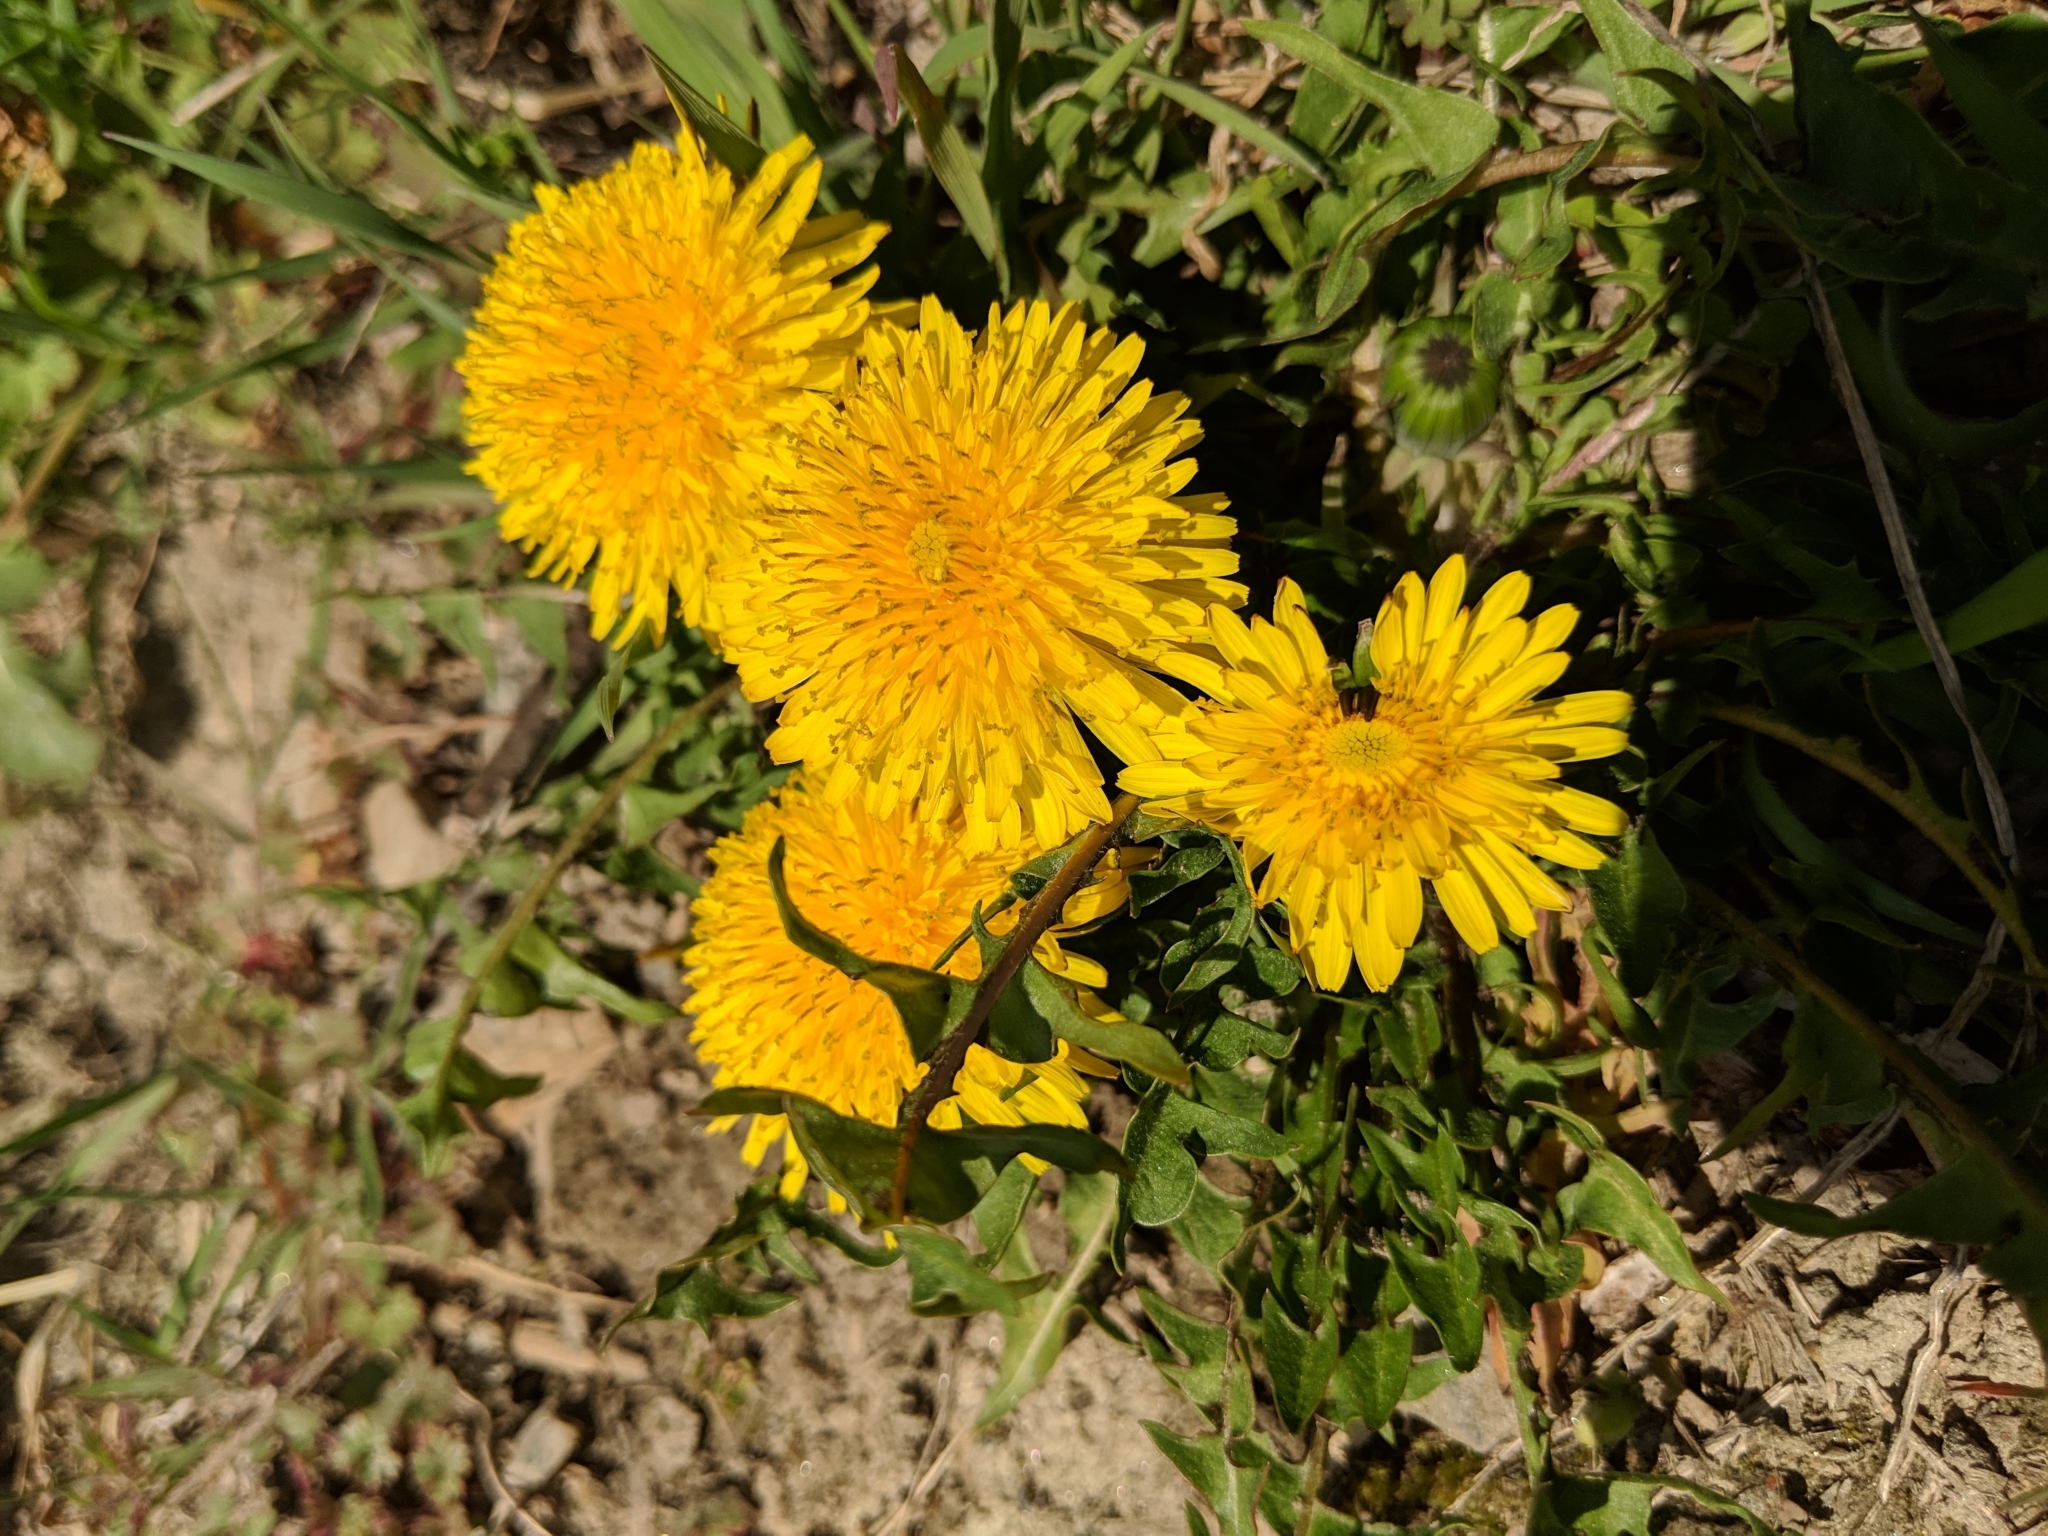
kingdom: Plantae
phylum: Tracheophyta
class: Magnoliopsida
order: Asterales
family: Asteraceae
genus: Taraxacum
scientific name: Taraxacum officinale
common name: Common dandelion
